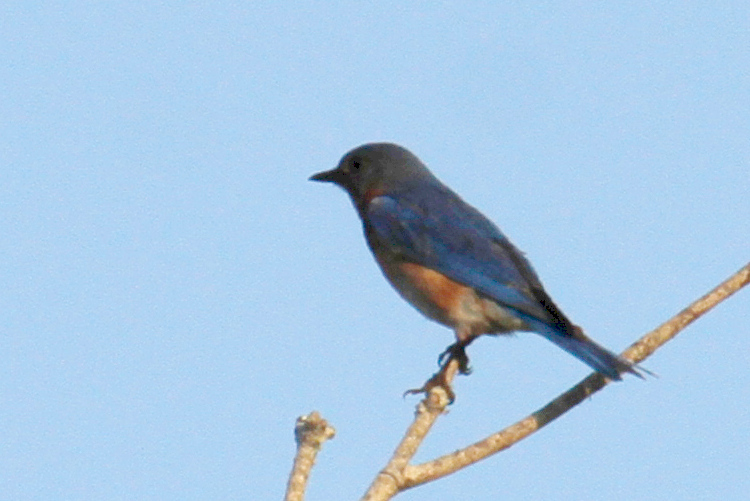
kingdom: Animalia
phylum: Chordata
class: Aves
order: Passeriformes
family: Turdidae
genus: Sialia
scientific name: Sialia sialis
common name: Eastern bluebird
